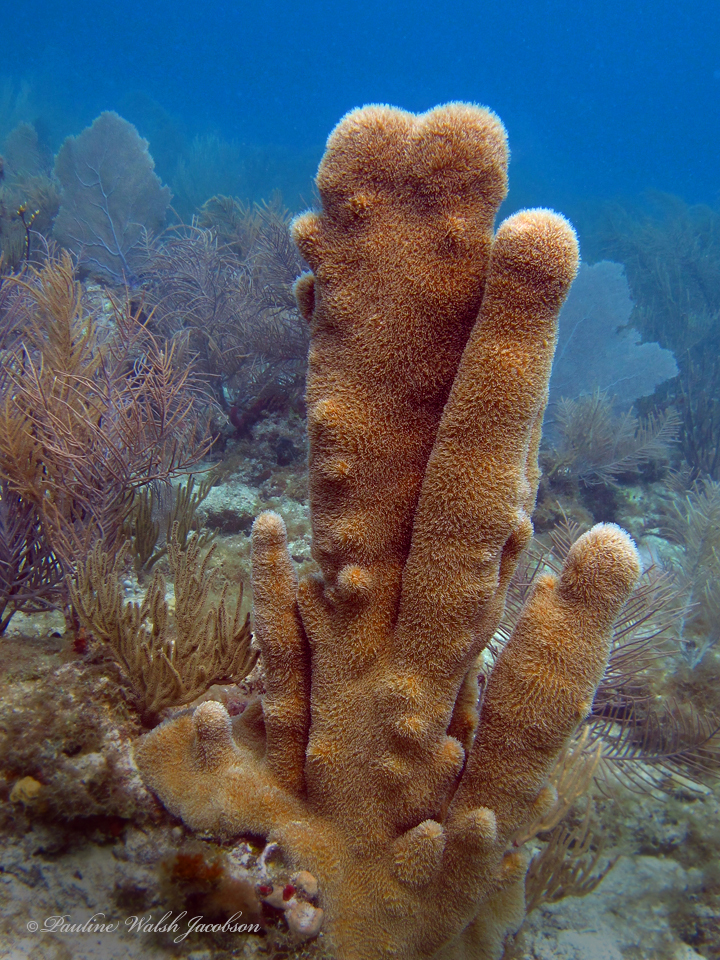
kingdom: Animalia
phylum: Cnidaria
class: Anthozoa
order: Scleractinia
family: Meandrinidae
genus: Dendrogyra
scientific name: Dendrogyra cylindrus
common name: Pillar coral
